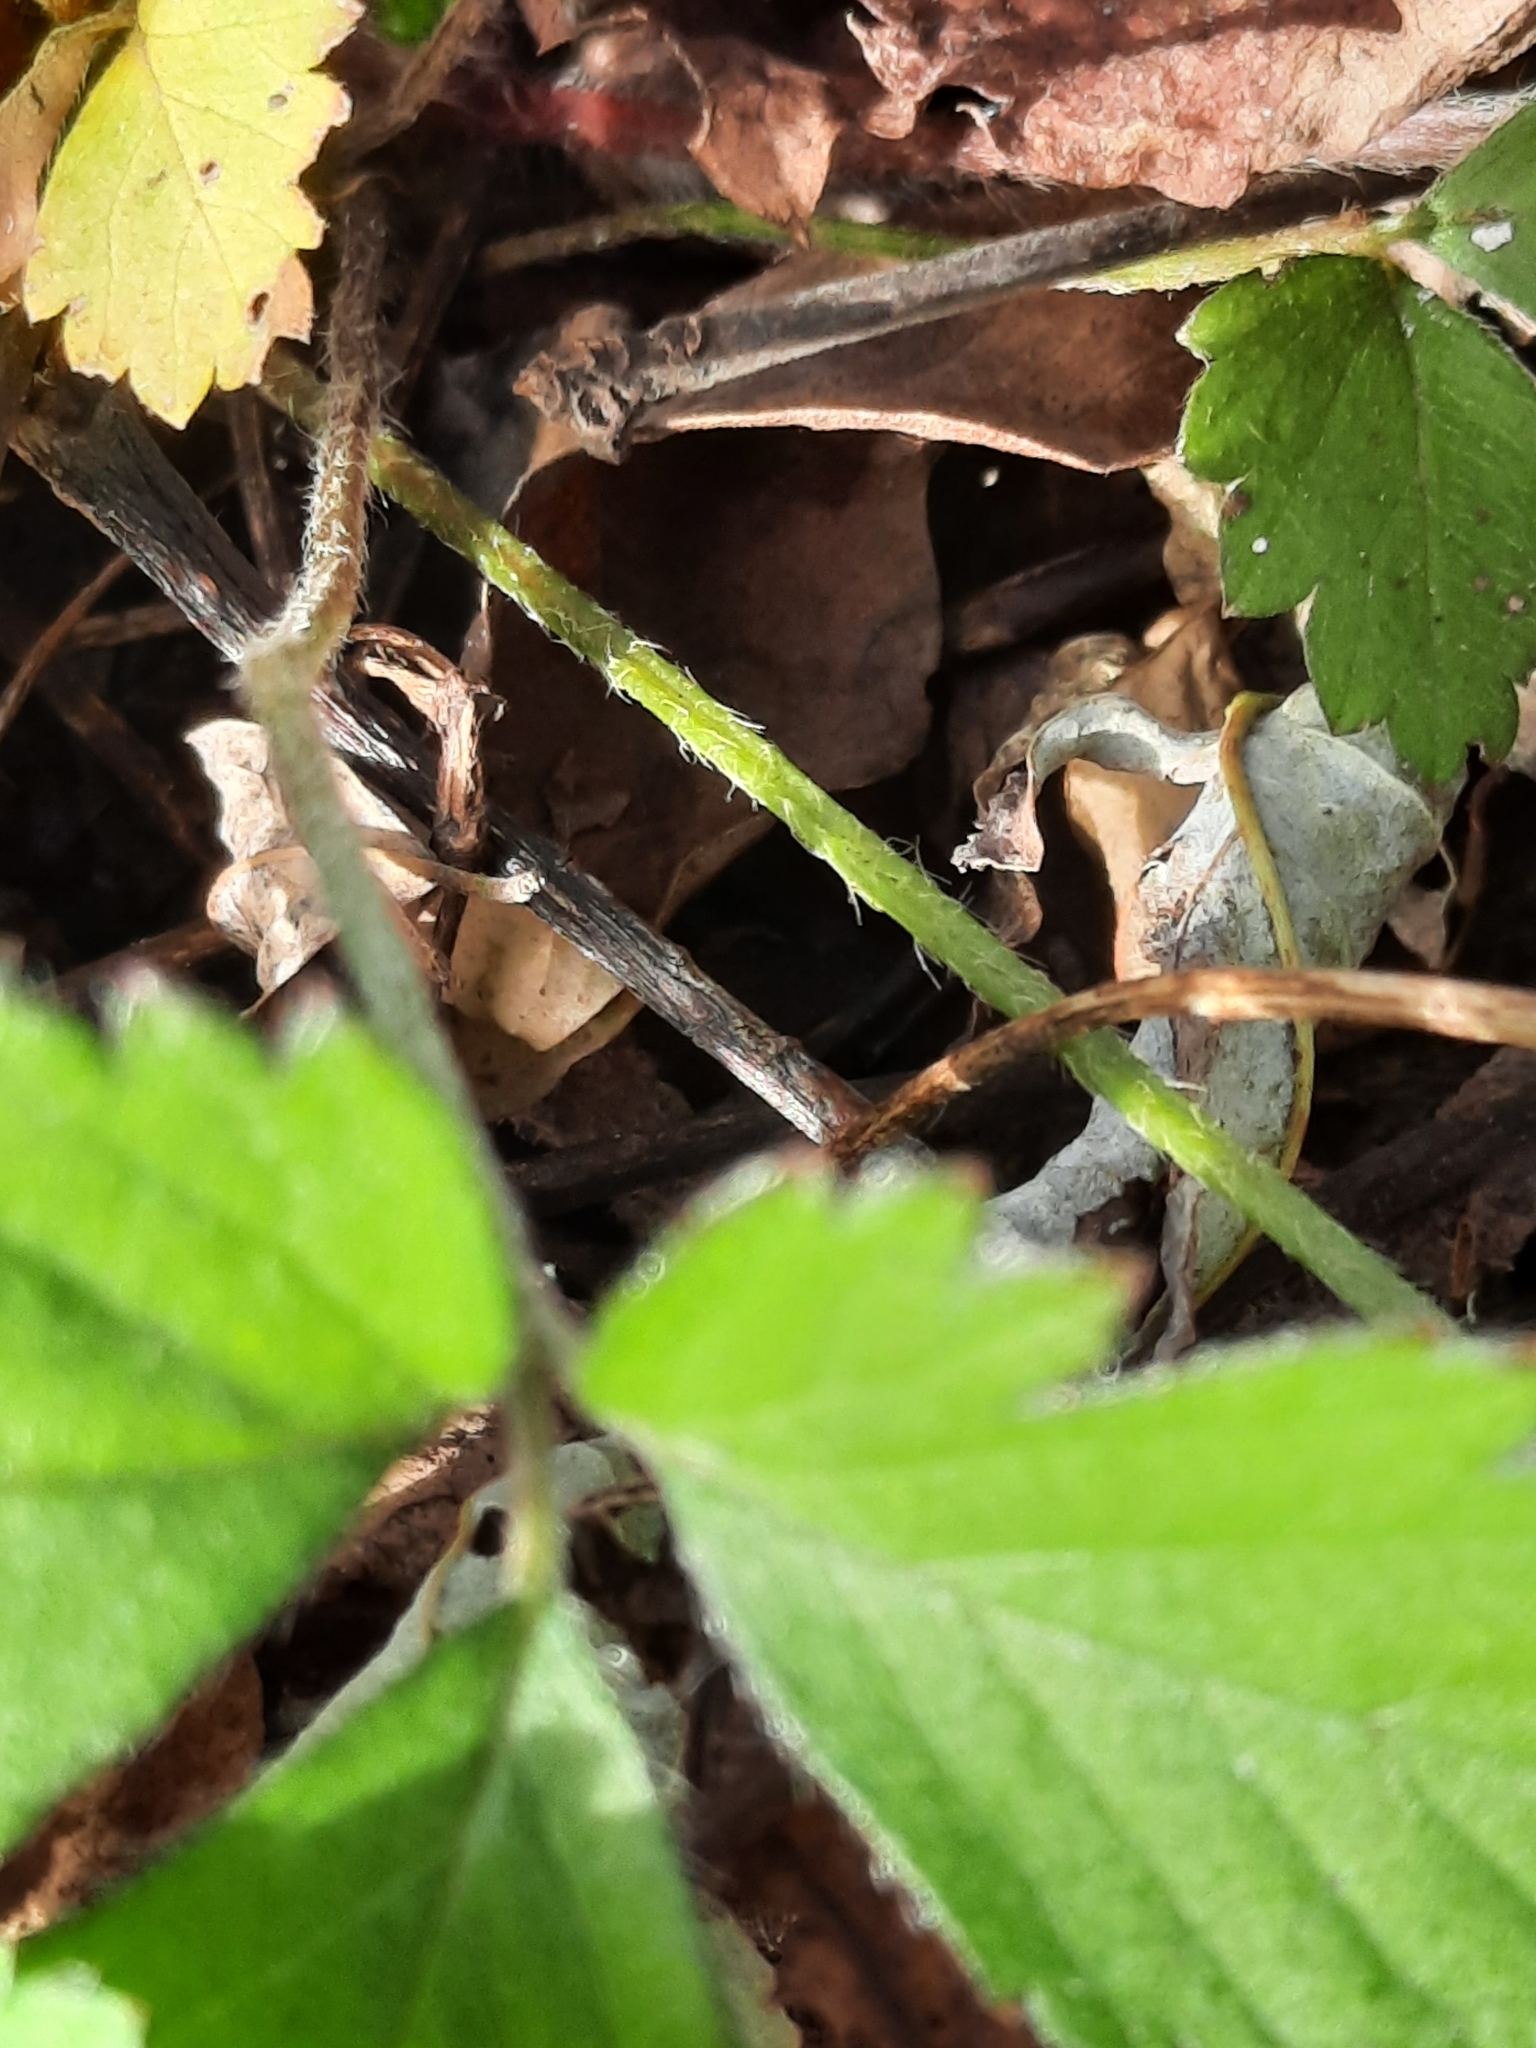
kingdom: Plantae
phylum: Tracheophyta
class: Magnoliopsida
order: Rosales
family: Rosaceae
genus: Potentilla
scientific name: Potentilla indica
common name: Yellow-flowered strawberry
